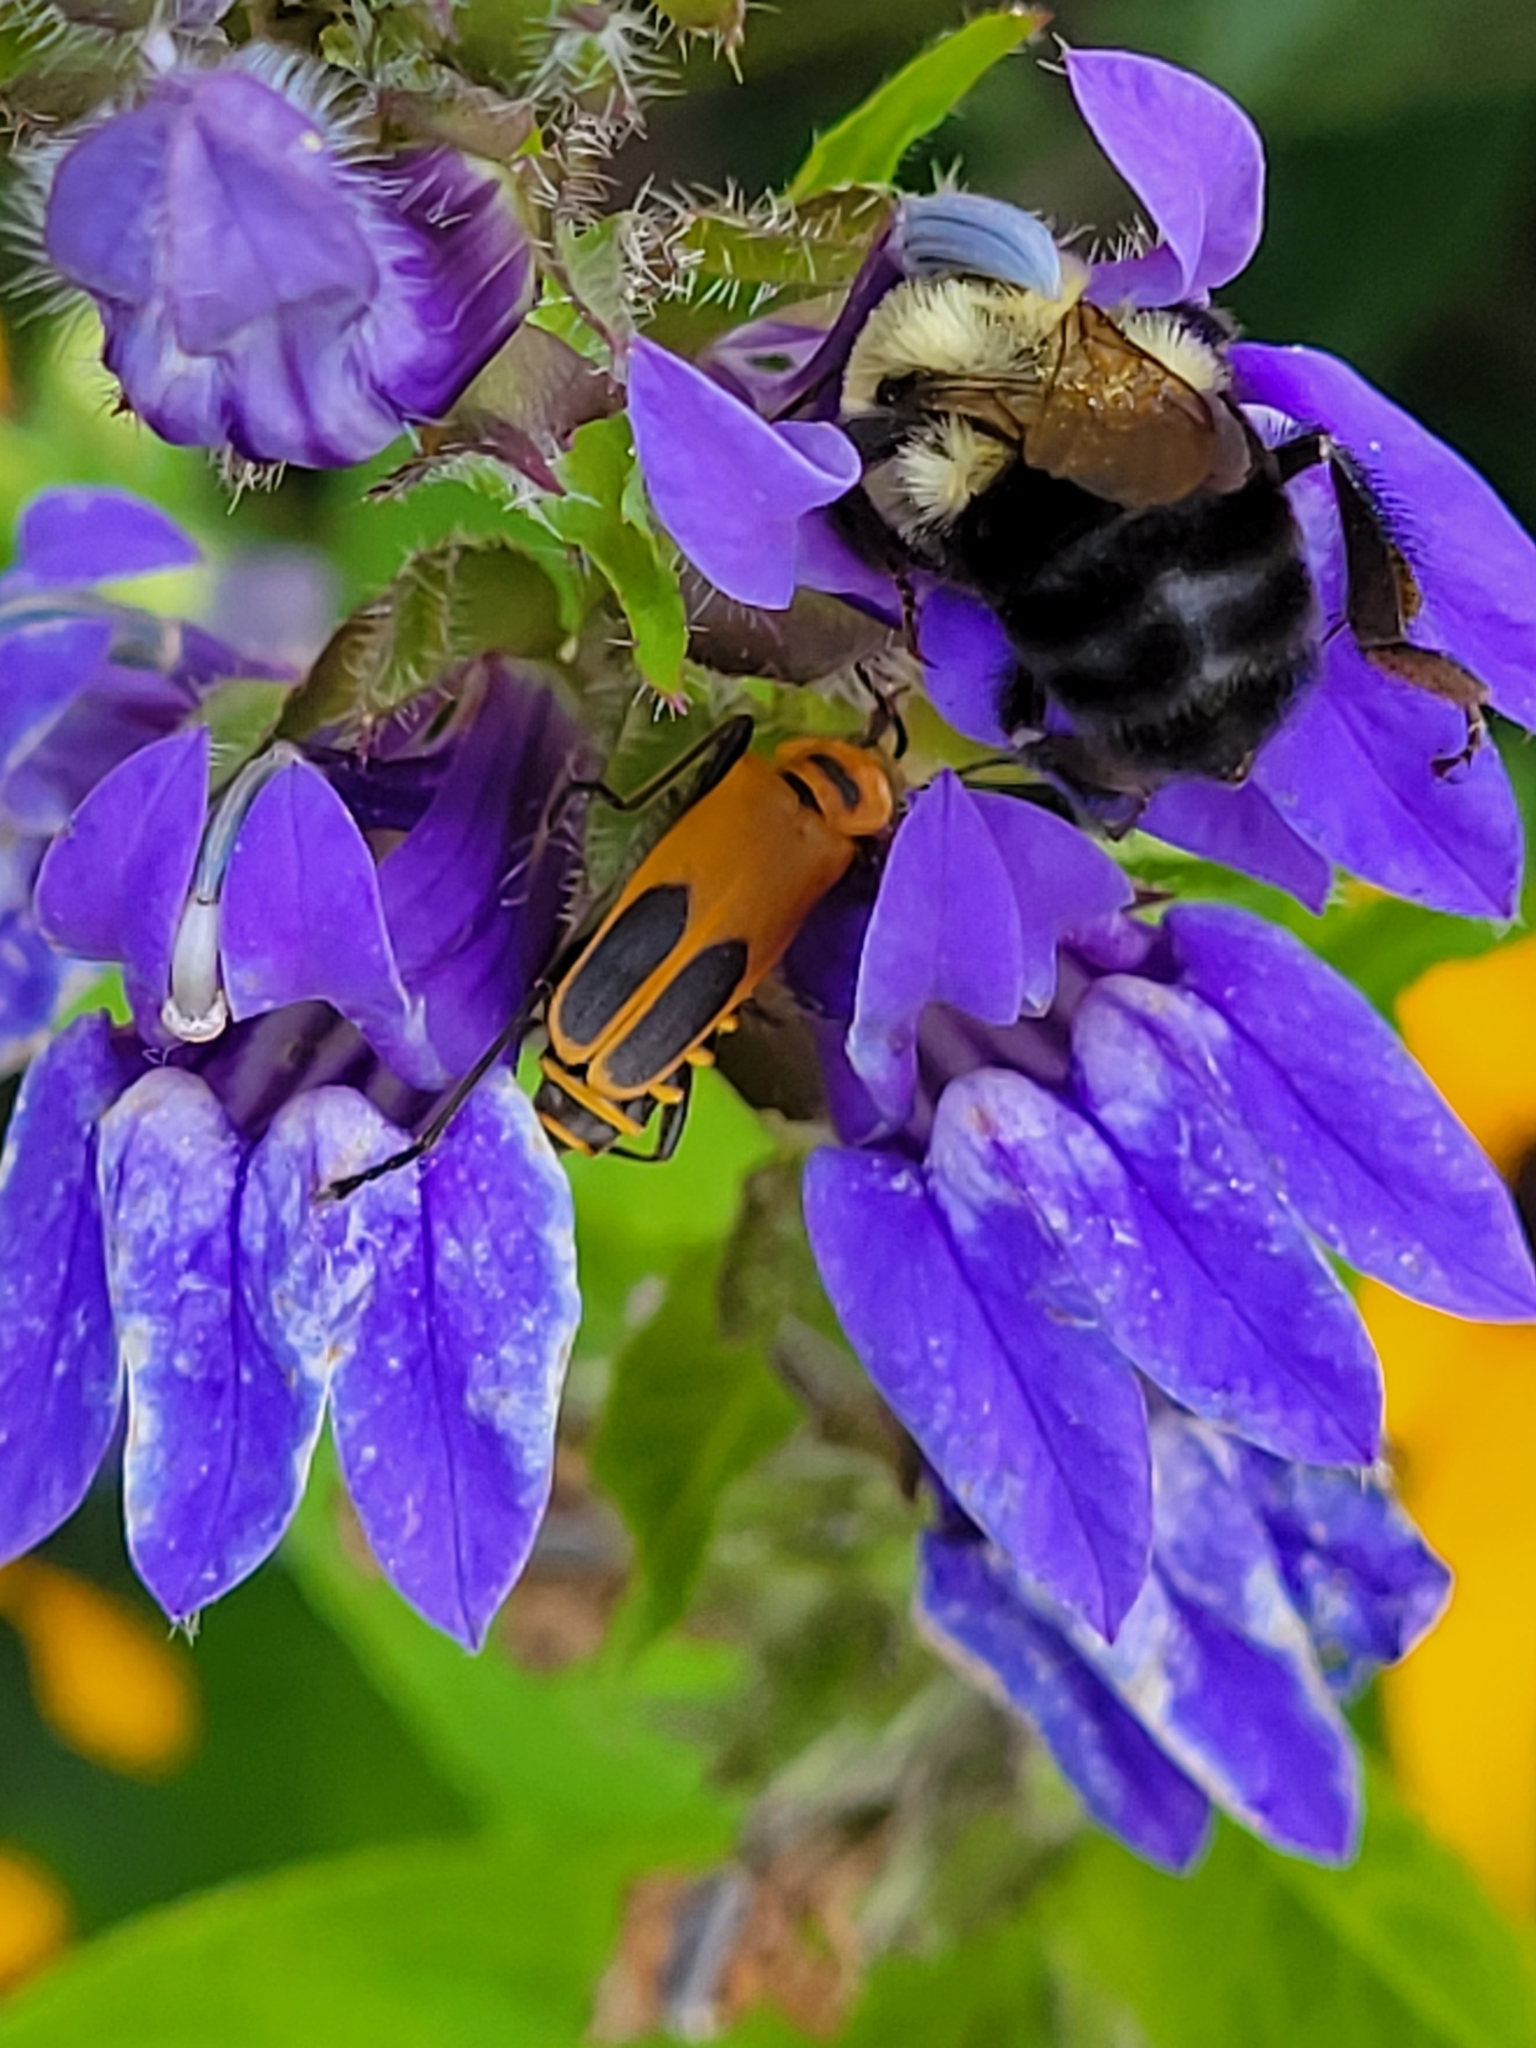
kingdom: Animalia
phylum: Arthropoda
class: Insecta
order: Coleoptera
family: Cantharidae
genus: Chauliognathus
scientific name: Chauliognathus pensylvanicus
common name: Goldenrod soldier beetle
